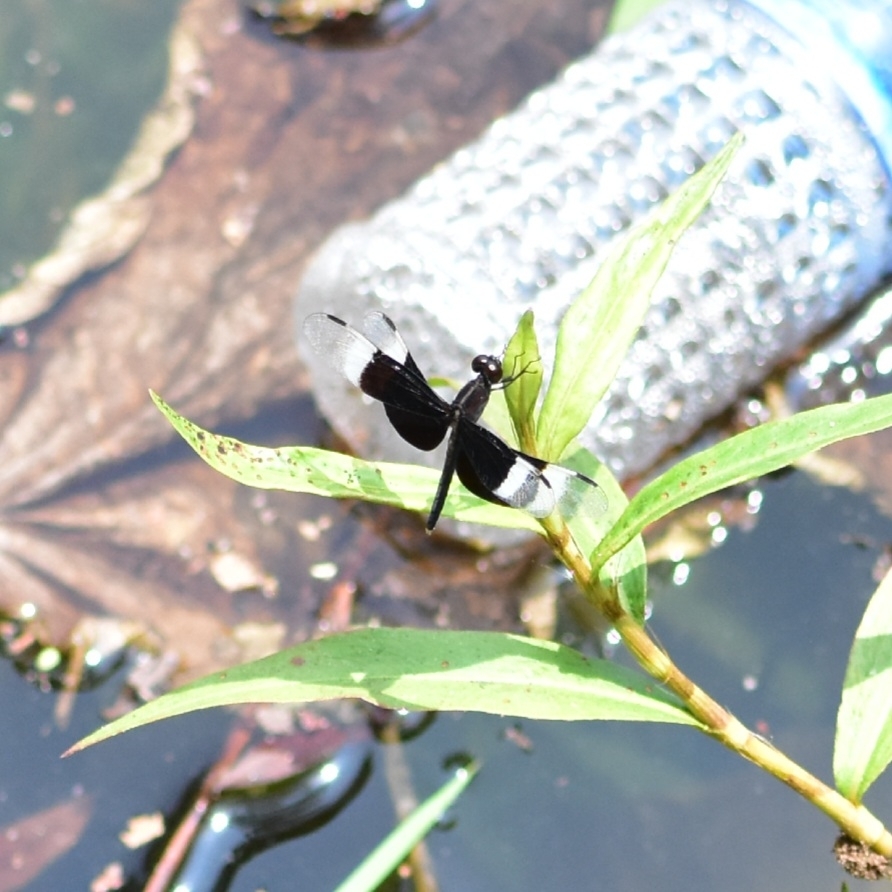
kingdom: Animalia
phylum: Arthropoda
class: Insecta
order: Odonata
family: Libellulidae
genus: Neurothemis
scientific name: Neurothemis tullia
